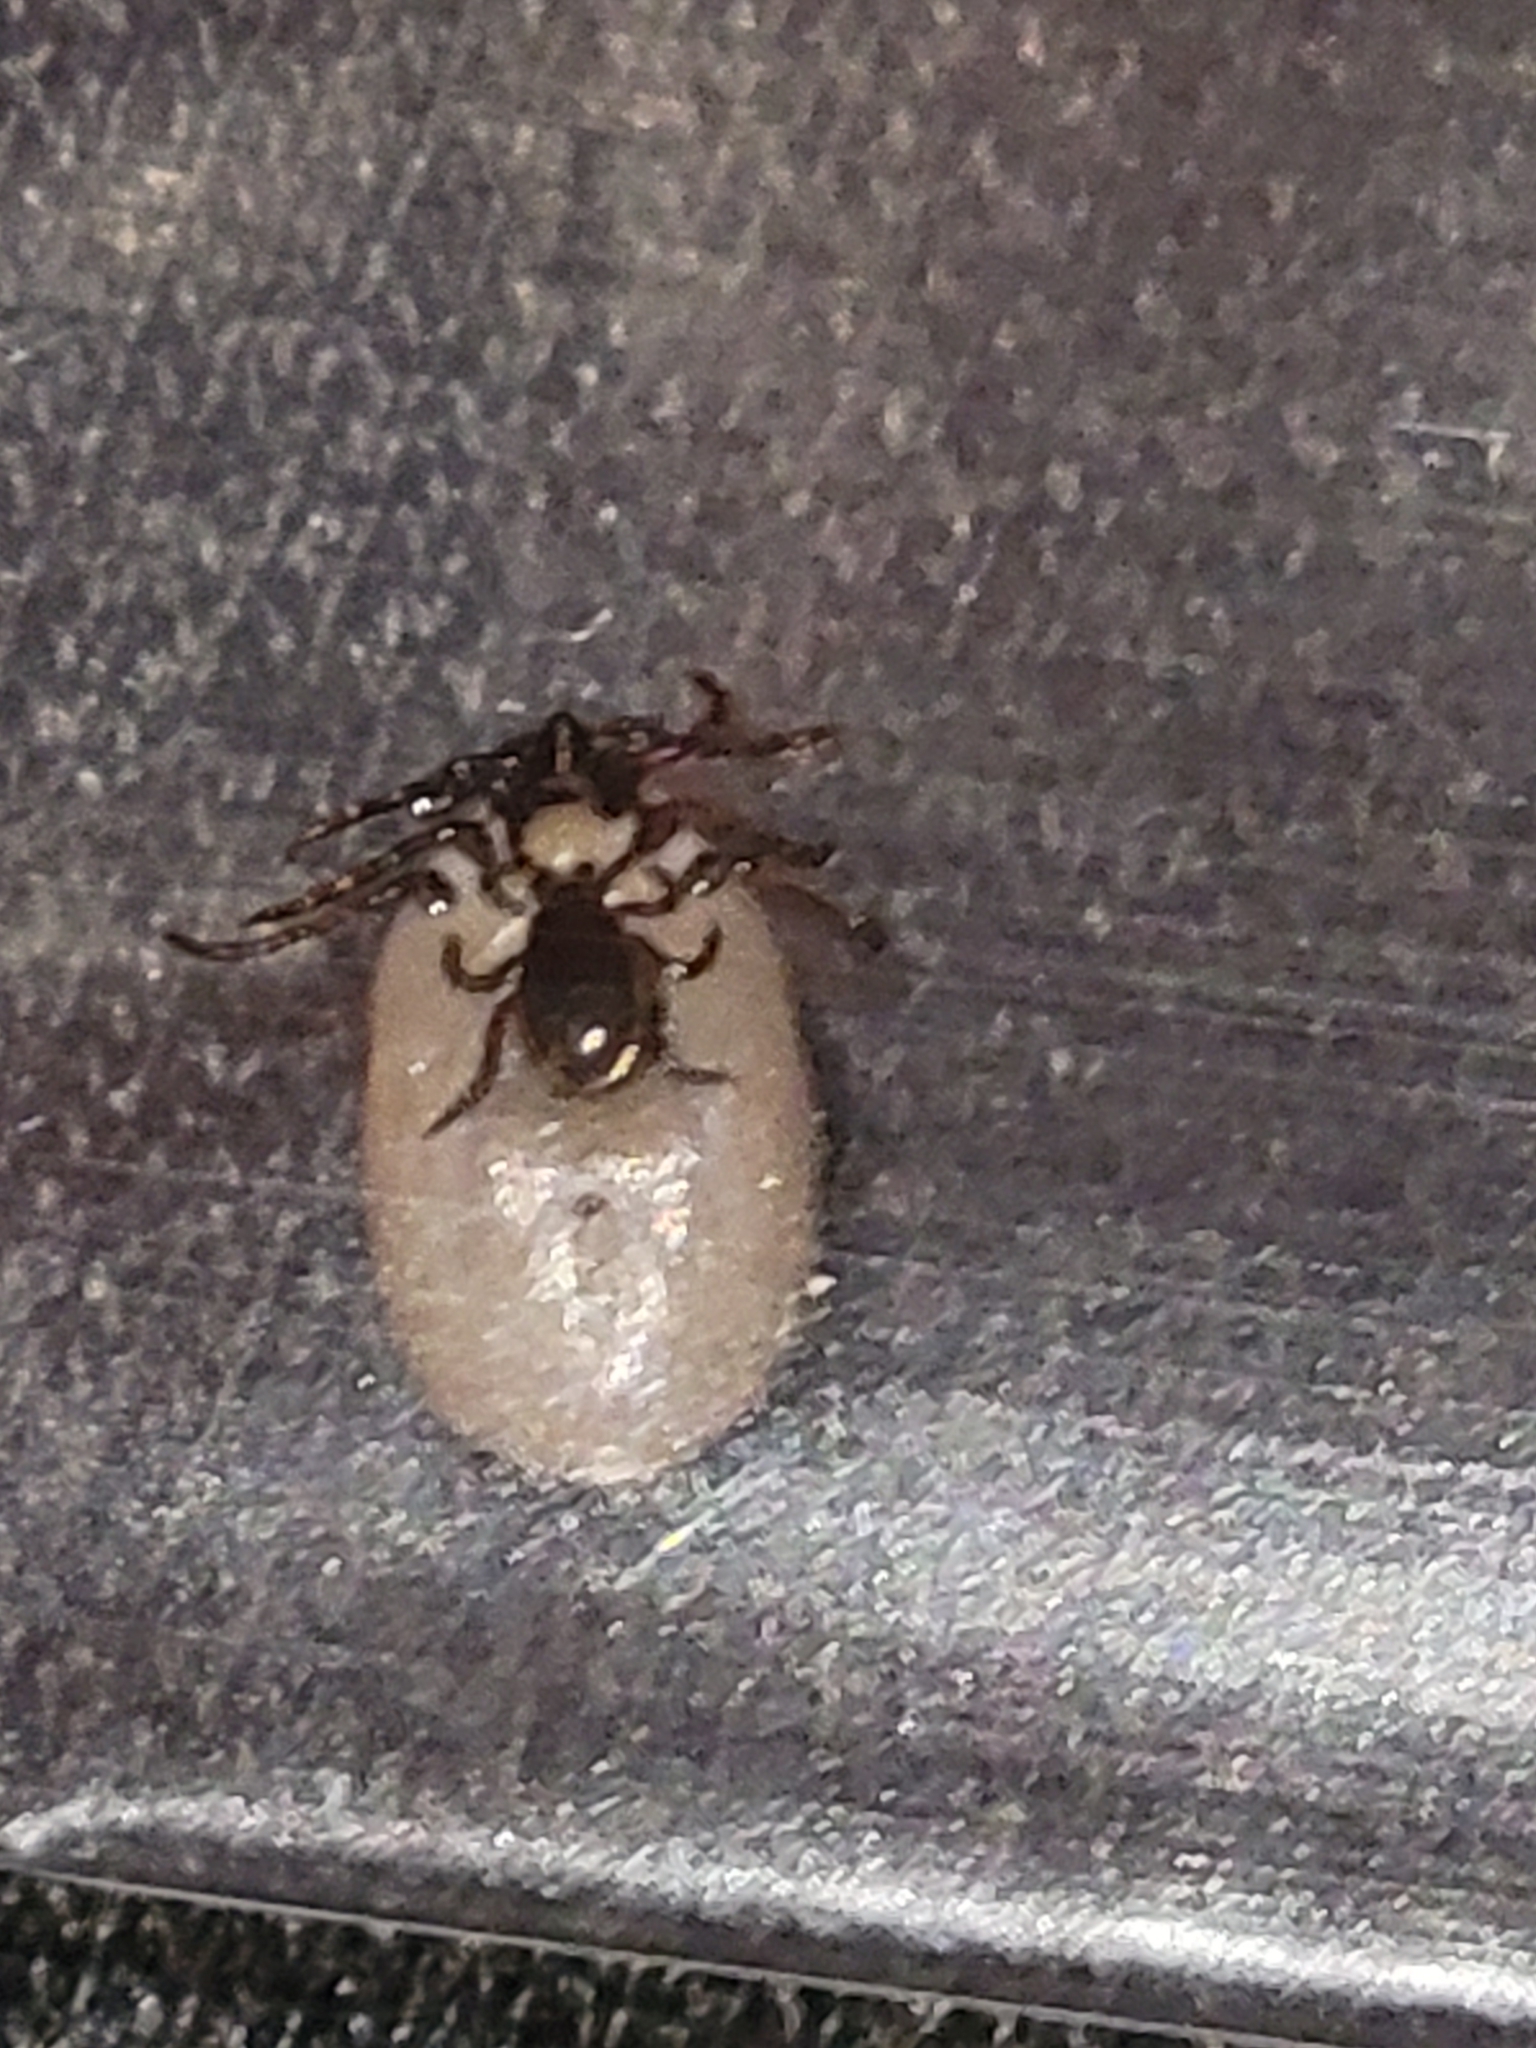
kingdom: Animalia
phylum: Arthropoda
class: Arachnida
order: Ixodida
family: Ixodidae
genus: Ixodes
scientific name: Ixodes scapularis
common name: Black legged tick
